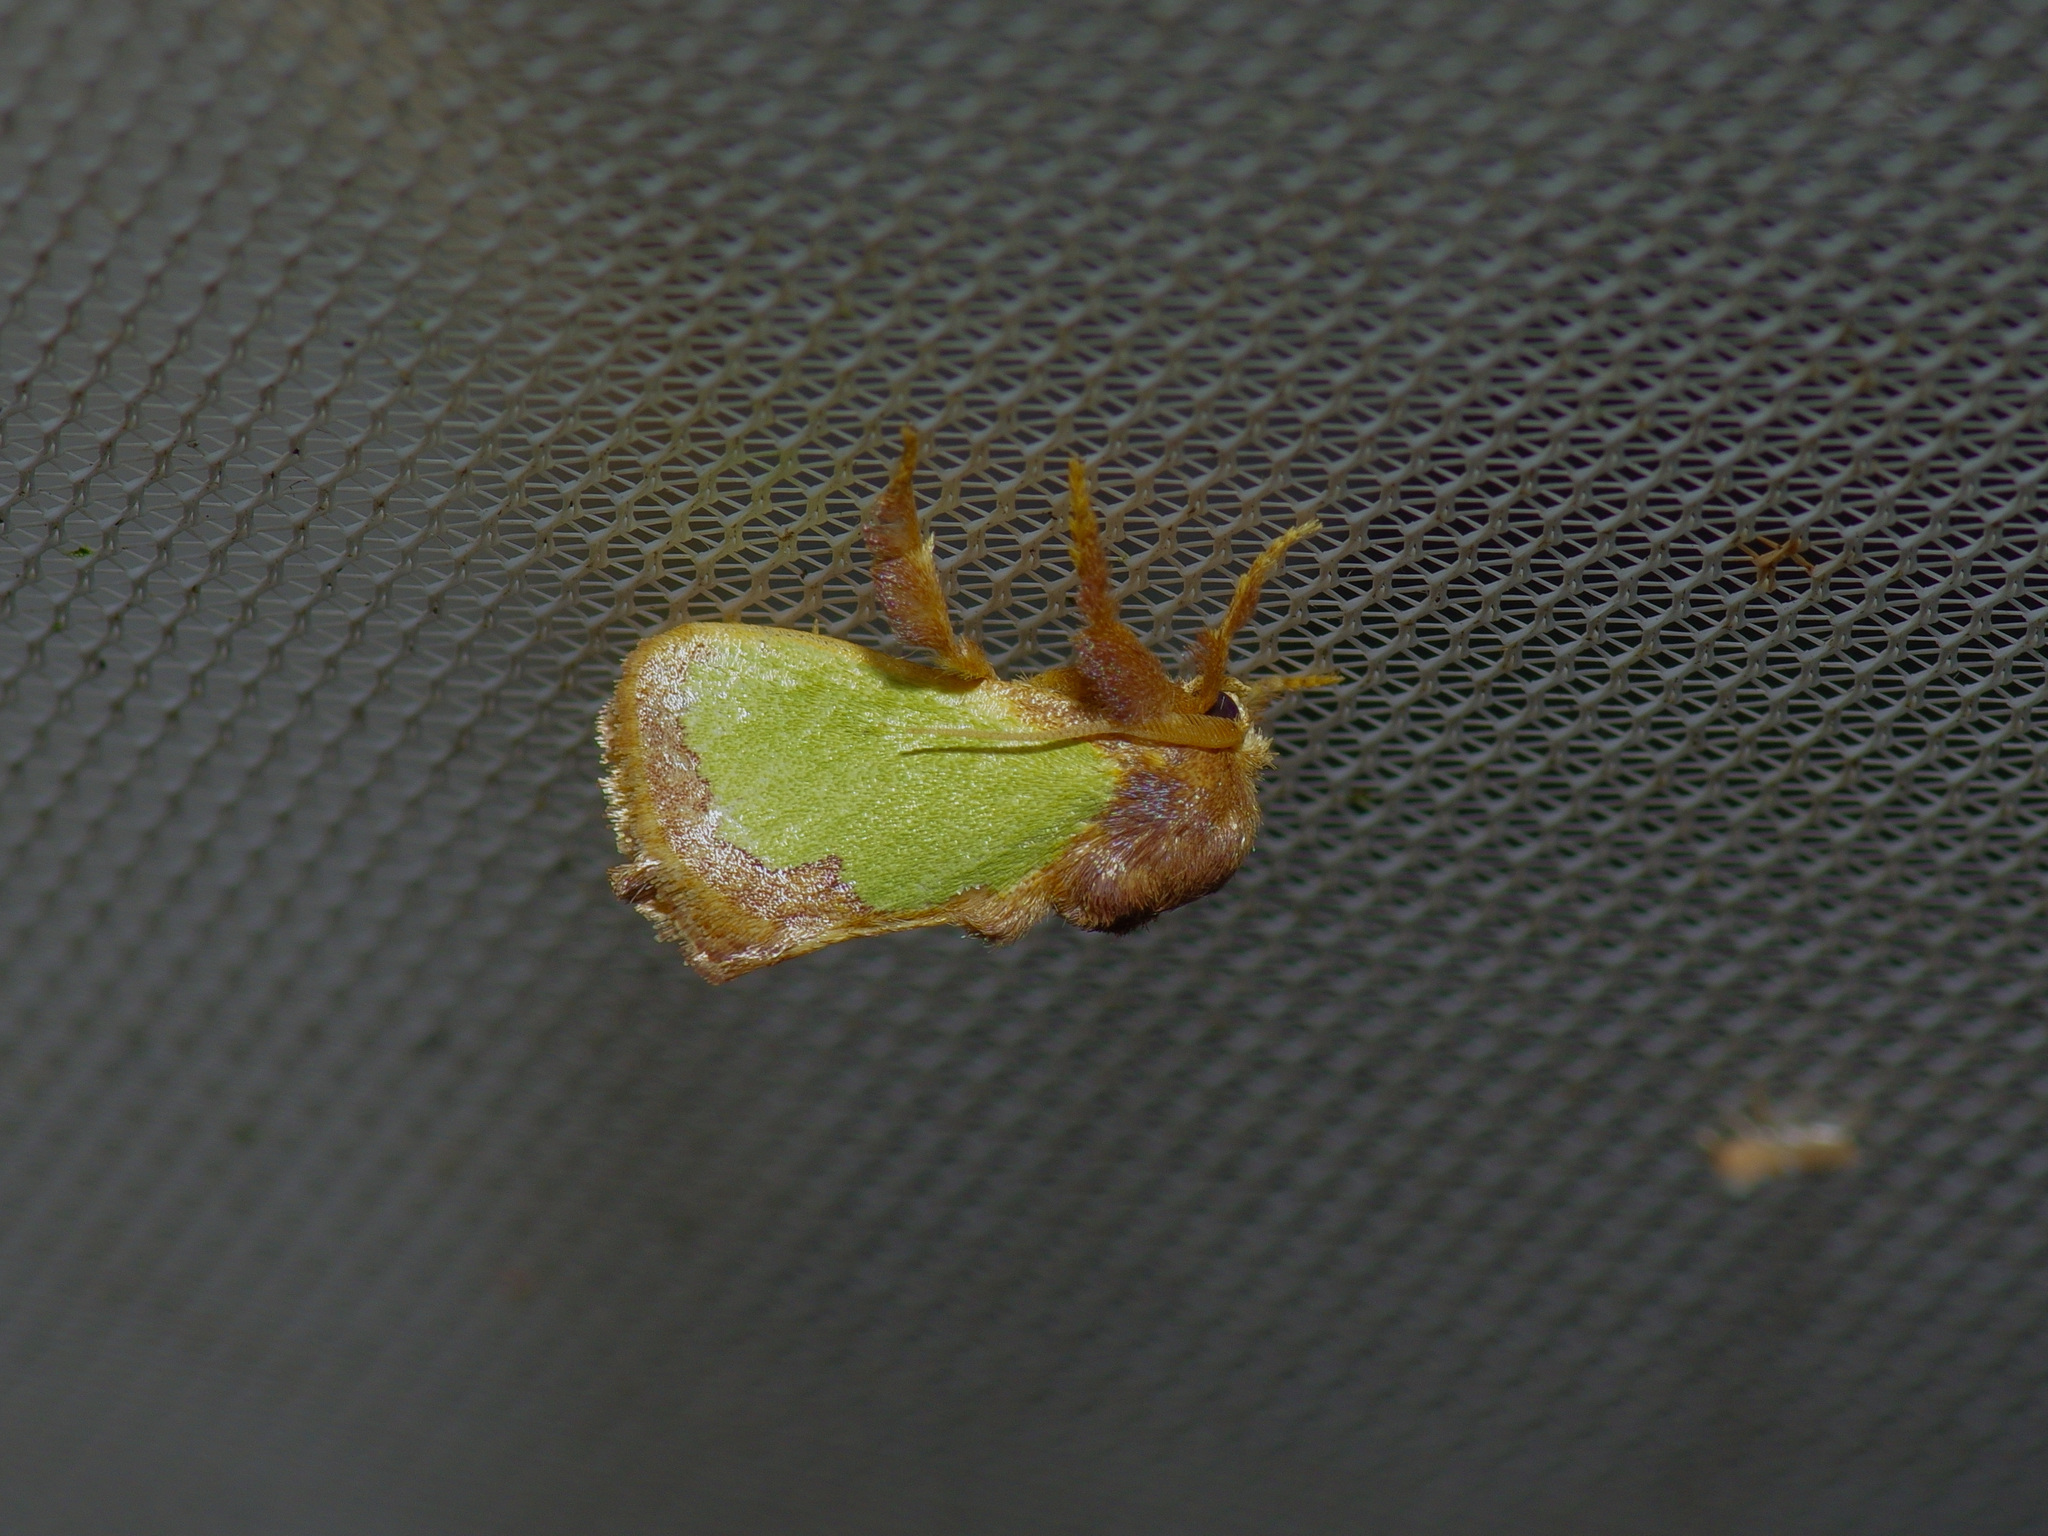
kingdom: Animalia
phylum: Arthropoda
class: Insecta
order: Lepidoptera
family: Limacodidae
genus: Euclea
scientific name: Euclea incisa
